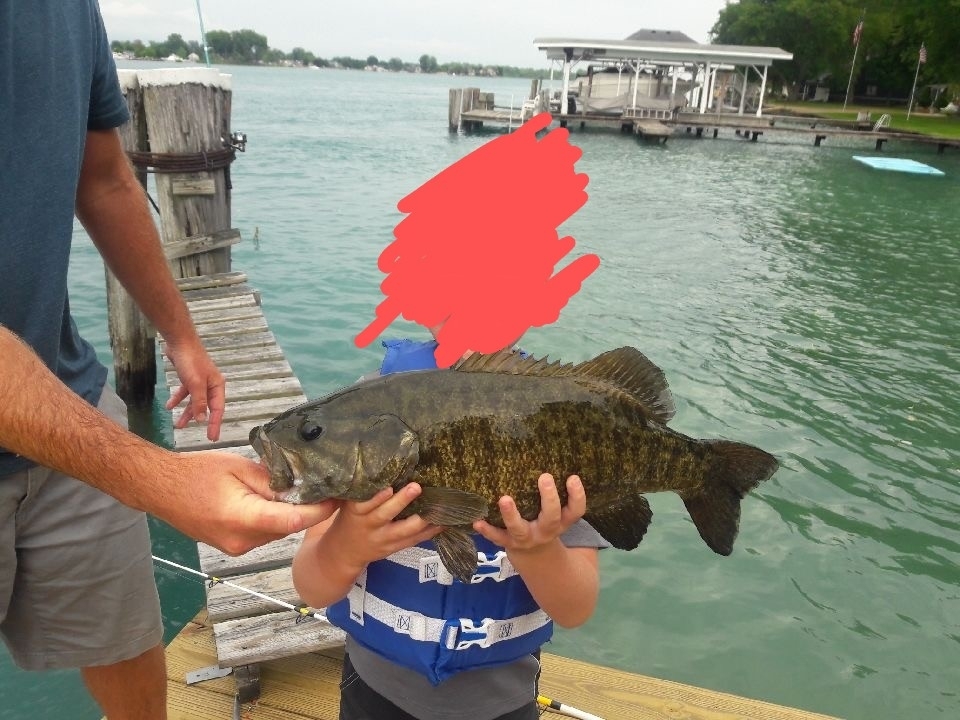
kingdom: Animalia
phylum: Chordata
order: Perciformes
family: Centrarchidae
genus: Micropterus
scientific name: Micropterus dolomieu
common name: Smallmouth bass
